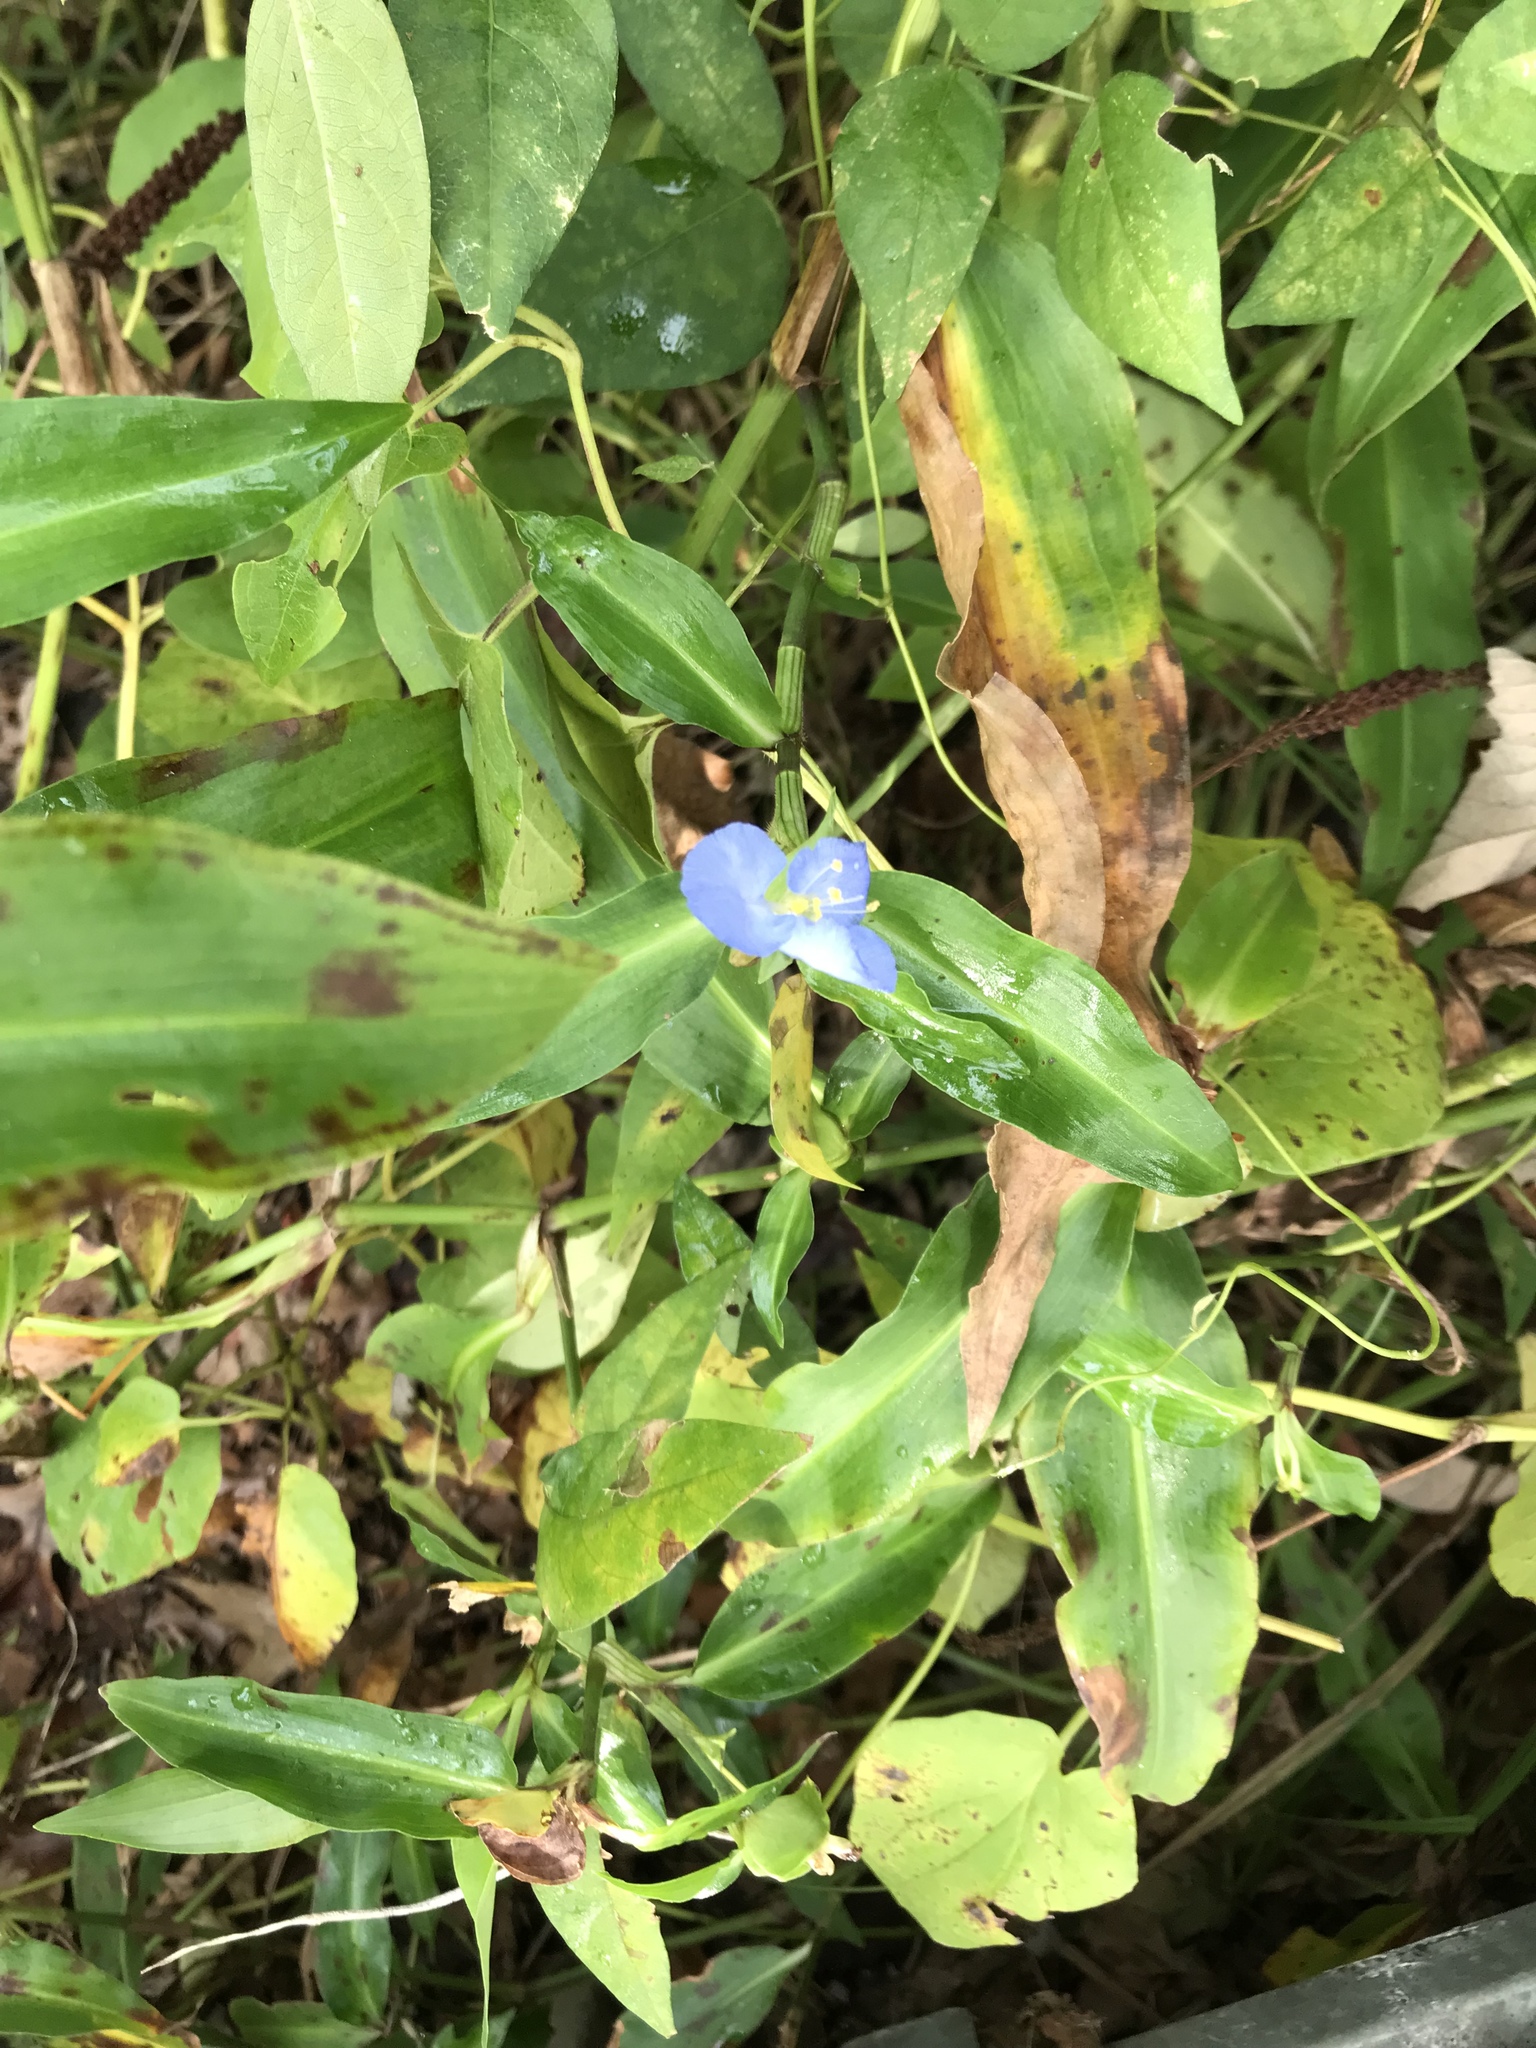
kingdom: Plantae
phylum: Tracheophyta
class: Liliopsida
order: Commelinales
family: Commelinaceae
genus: Commelina
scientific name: Commelina virginica
